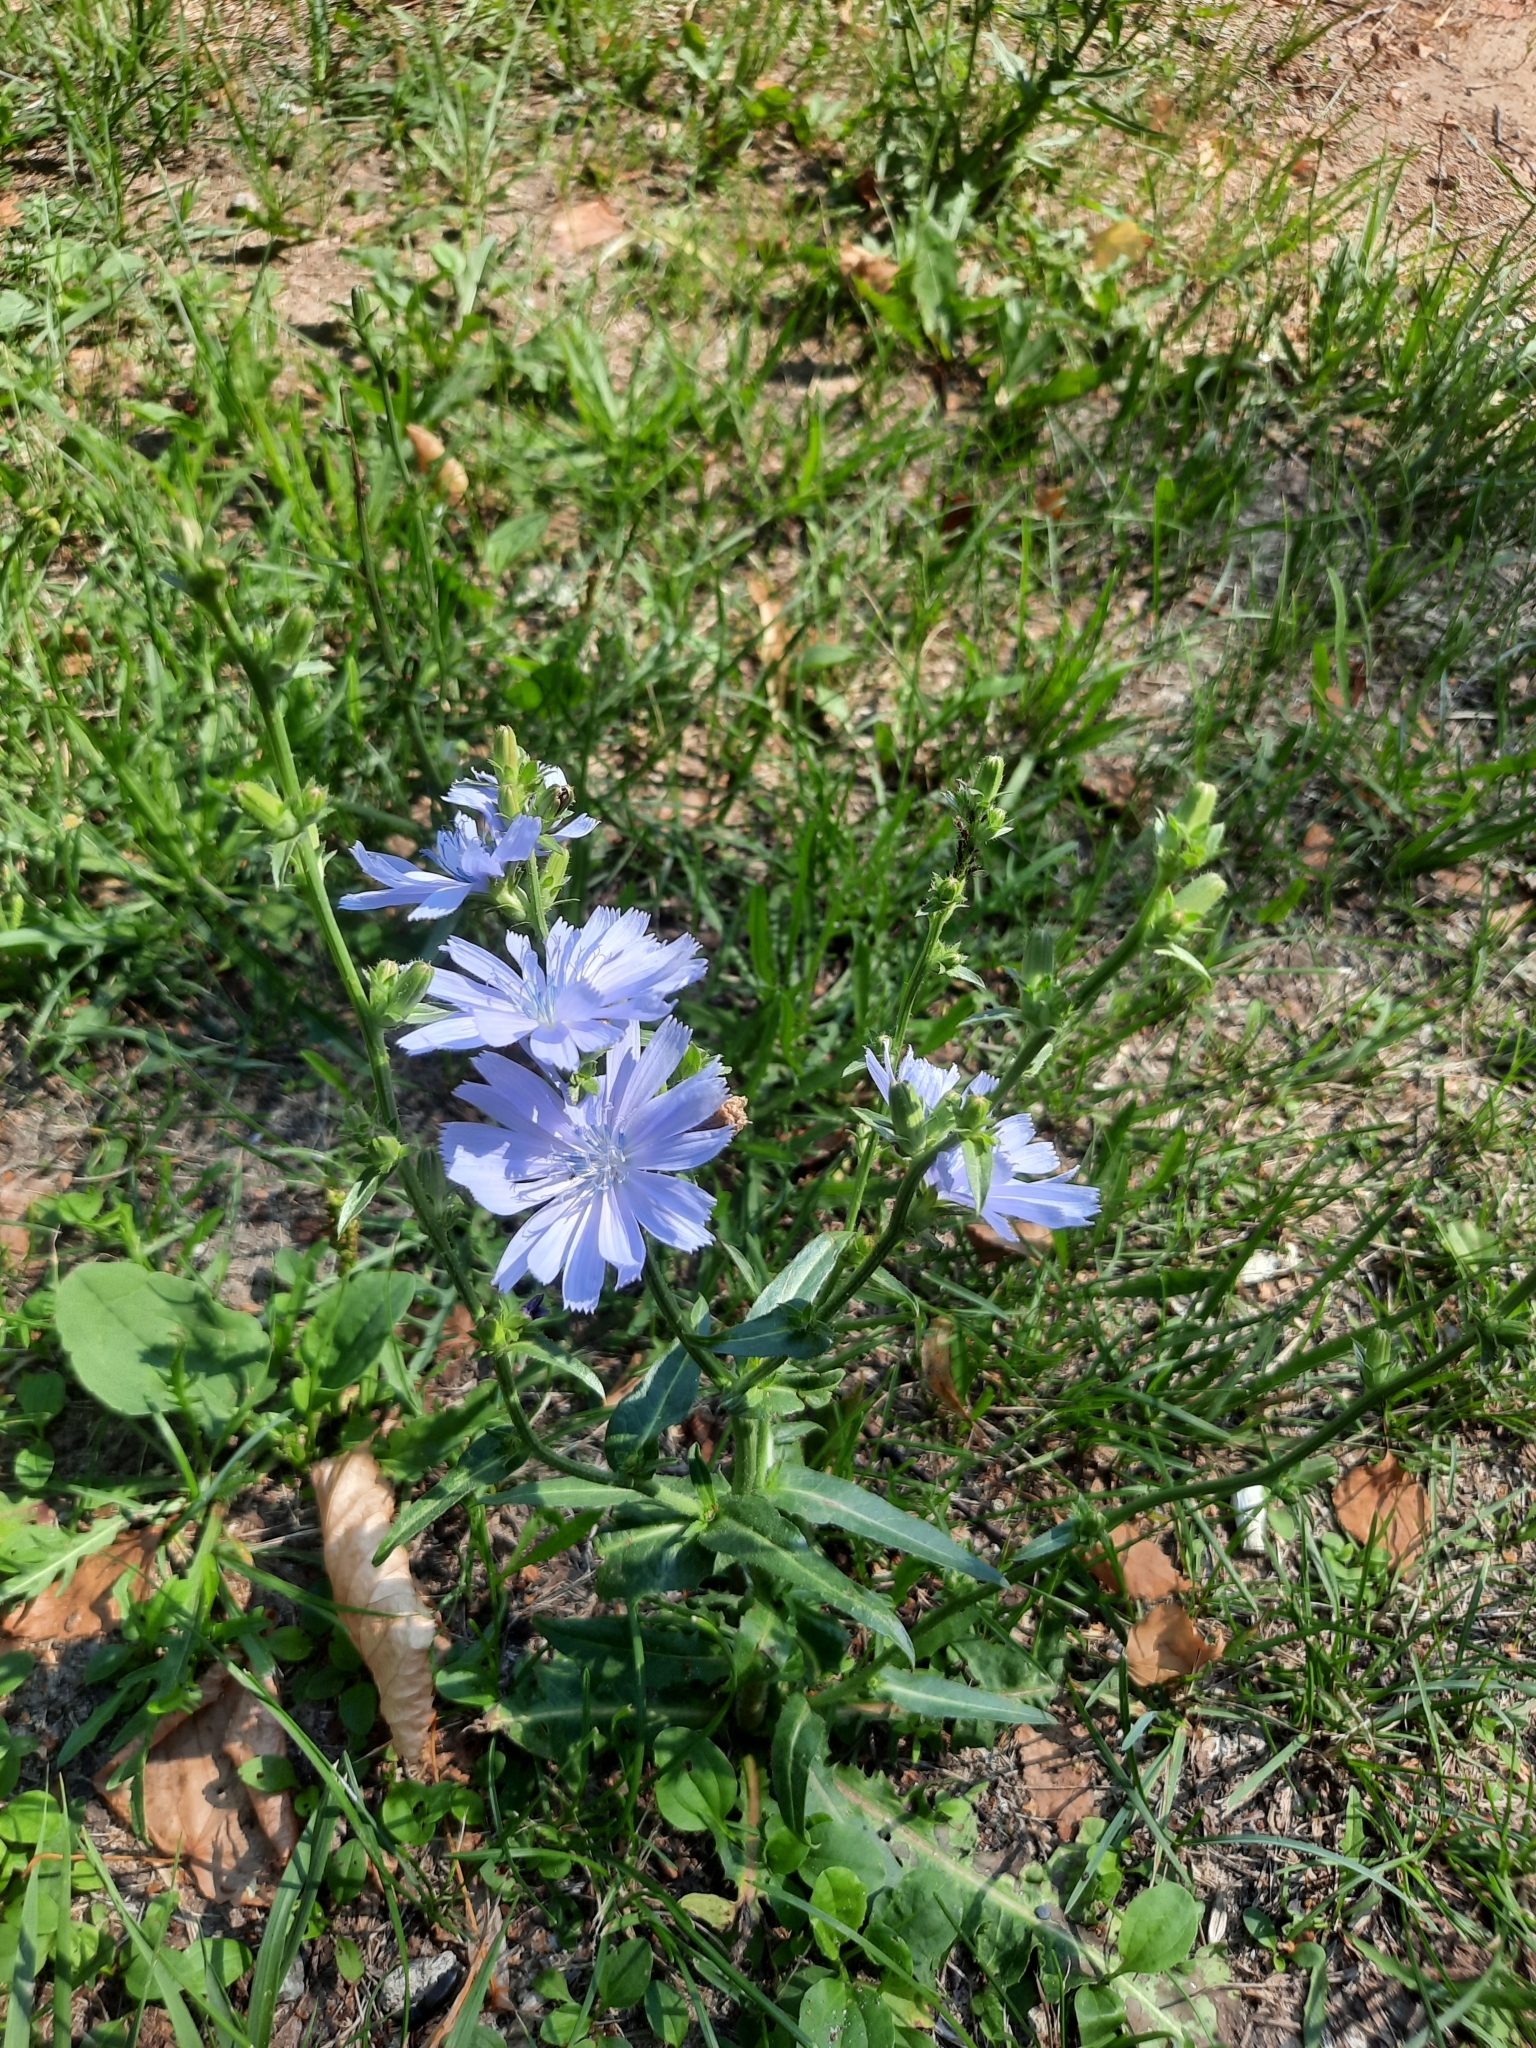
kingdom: Plantae
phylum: Tracheophyta
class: Magnoliopsida
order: Asterales
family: Asteraceae
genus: Cichorium
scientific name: Cichorium intybus
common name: Chicory
